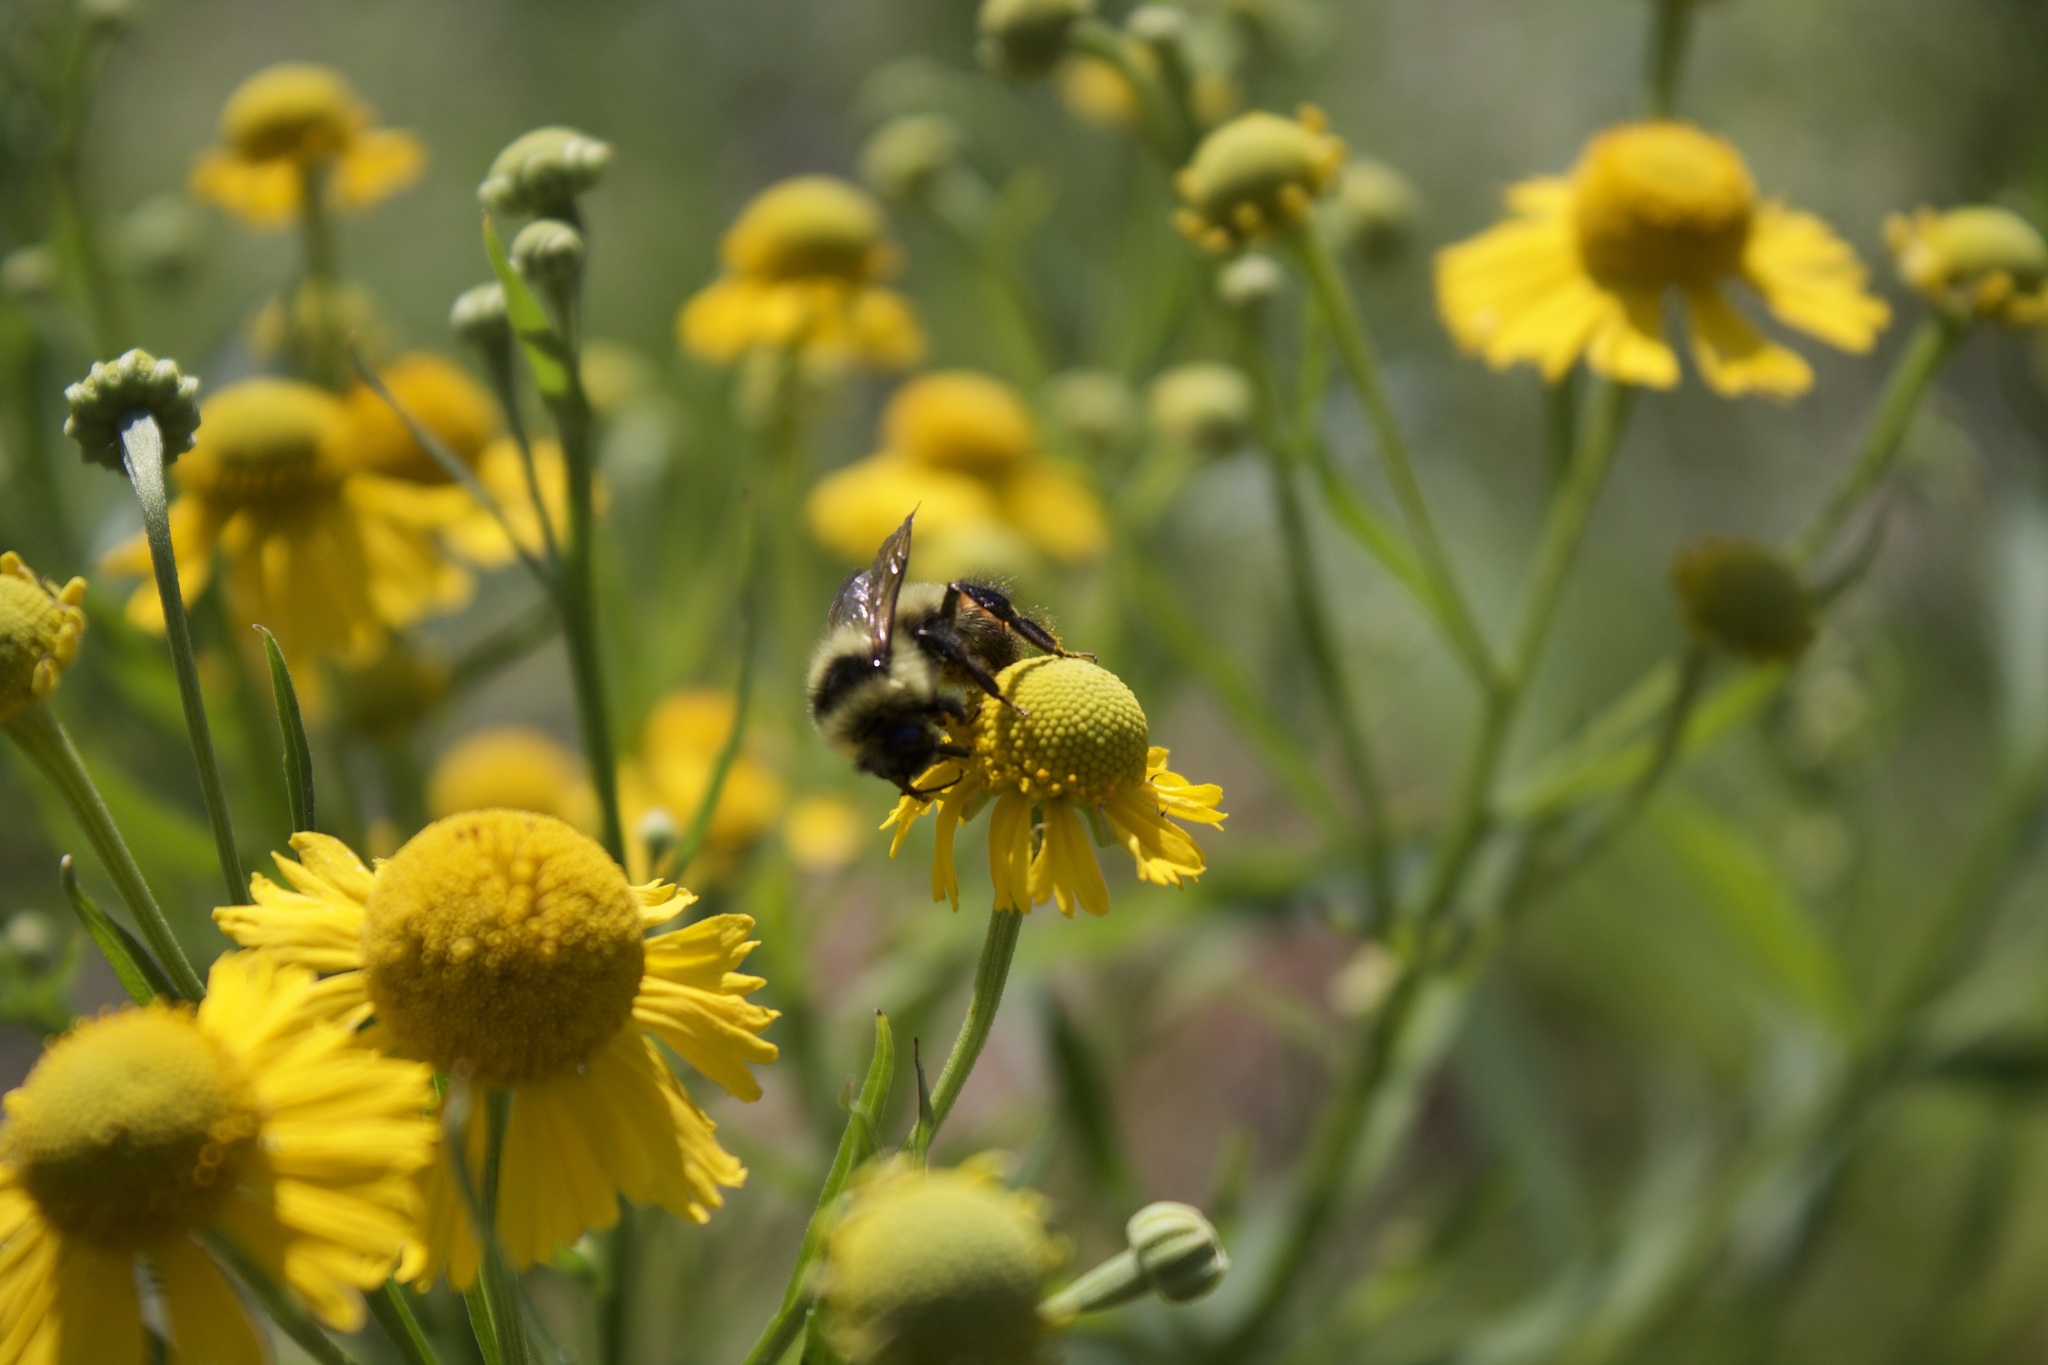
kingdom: Animalia
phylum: Arthropoda
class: Insecta
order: Hymenoptera
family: Apidae
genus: Bombus
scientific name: Bombus rufocinctus
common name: Red-belted bumble bee
